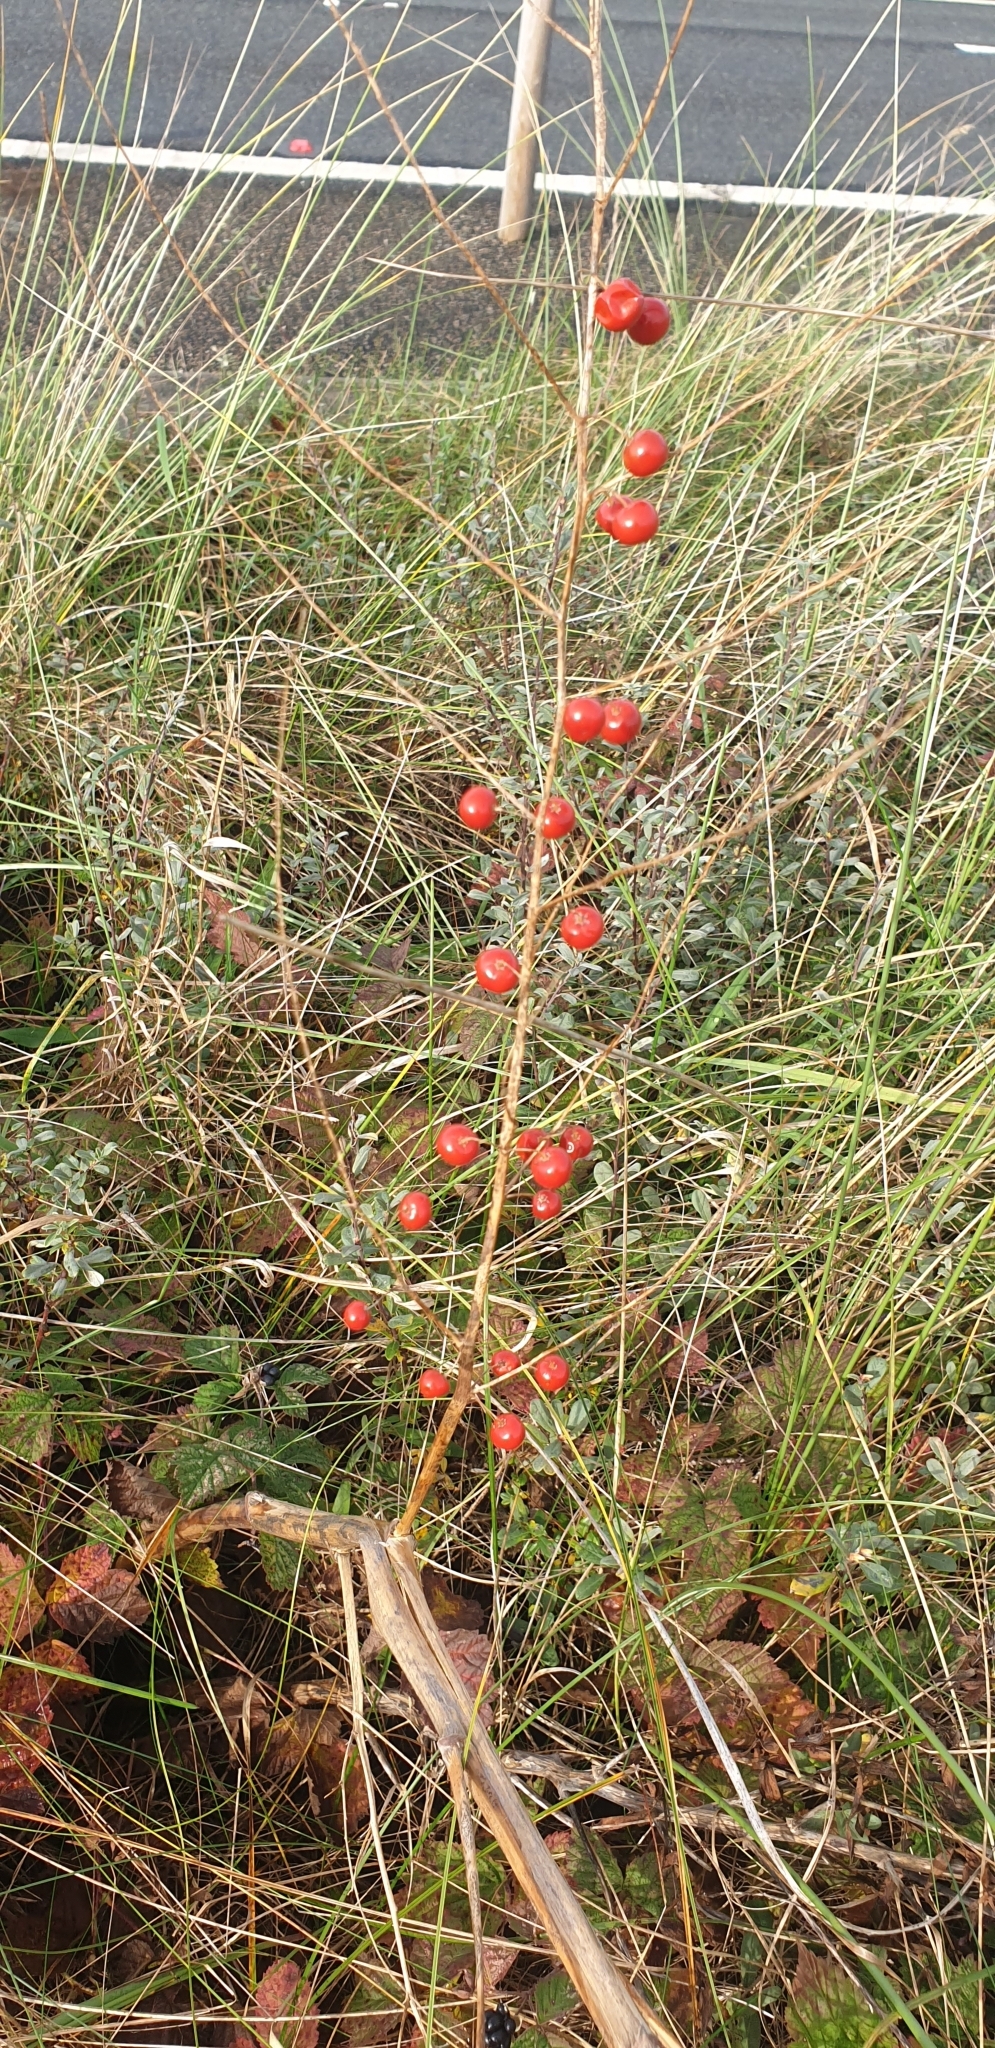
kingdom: Plantae
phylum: Tracheophyta
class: Liliopsida
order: Asparagales
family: Asparagaceae
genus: Asparagus
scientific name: Asparagus officinalis
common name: Garden asparagus
